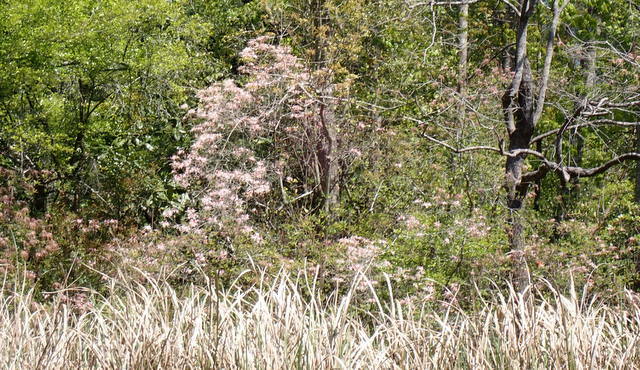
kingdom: Plantae
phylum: Tracheophyta
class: Magnoliopsida
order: Ericales
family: Ericaceae
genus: Rhododendron
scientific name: Rhododendron canescens
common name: Mountain azalea
